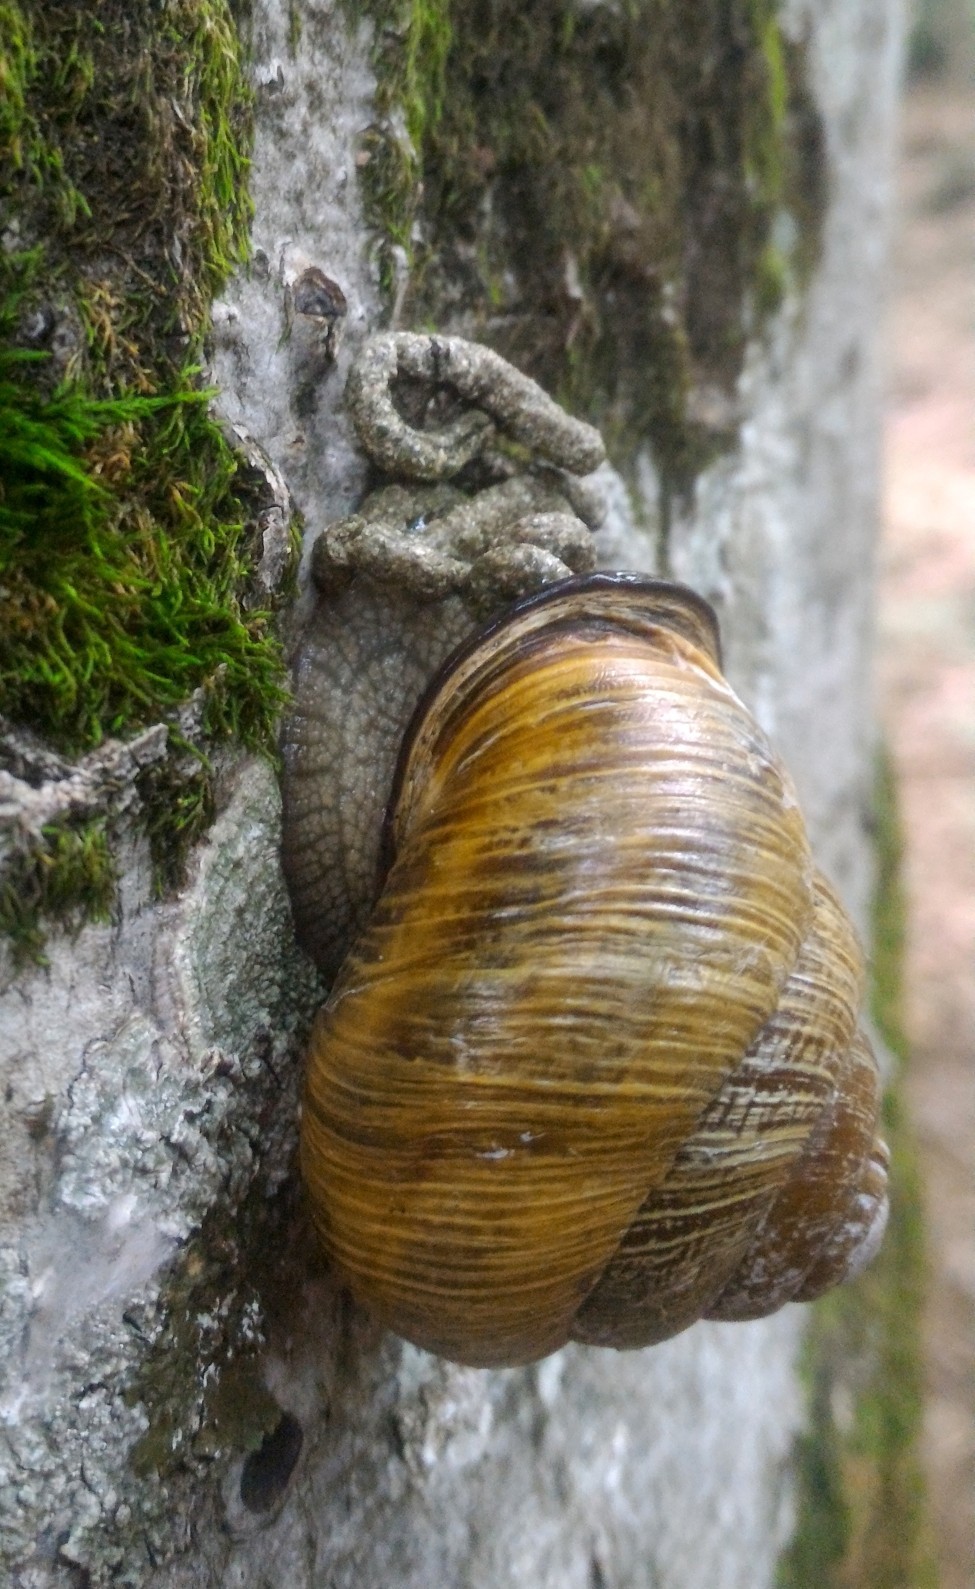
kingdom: Animalia
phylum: Mollusca
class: Gastropoda
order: Stylommatophora
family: Helicidae
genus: Caucasotachea
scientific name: Caucasotachea atrolabiata
